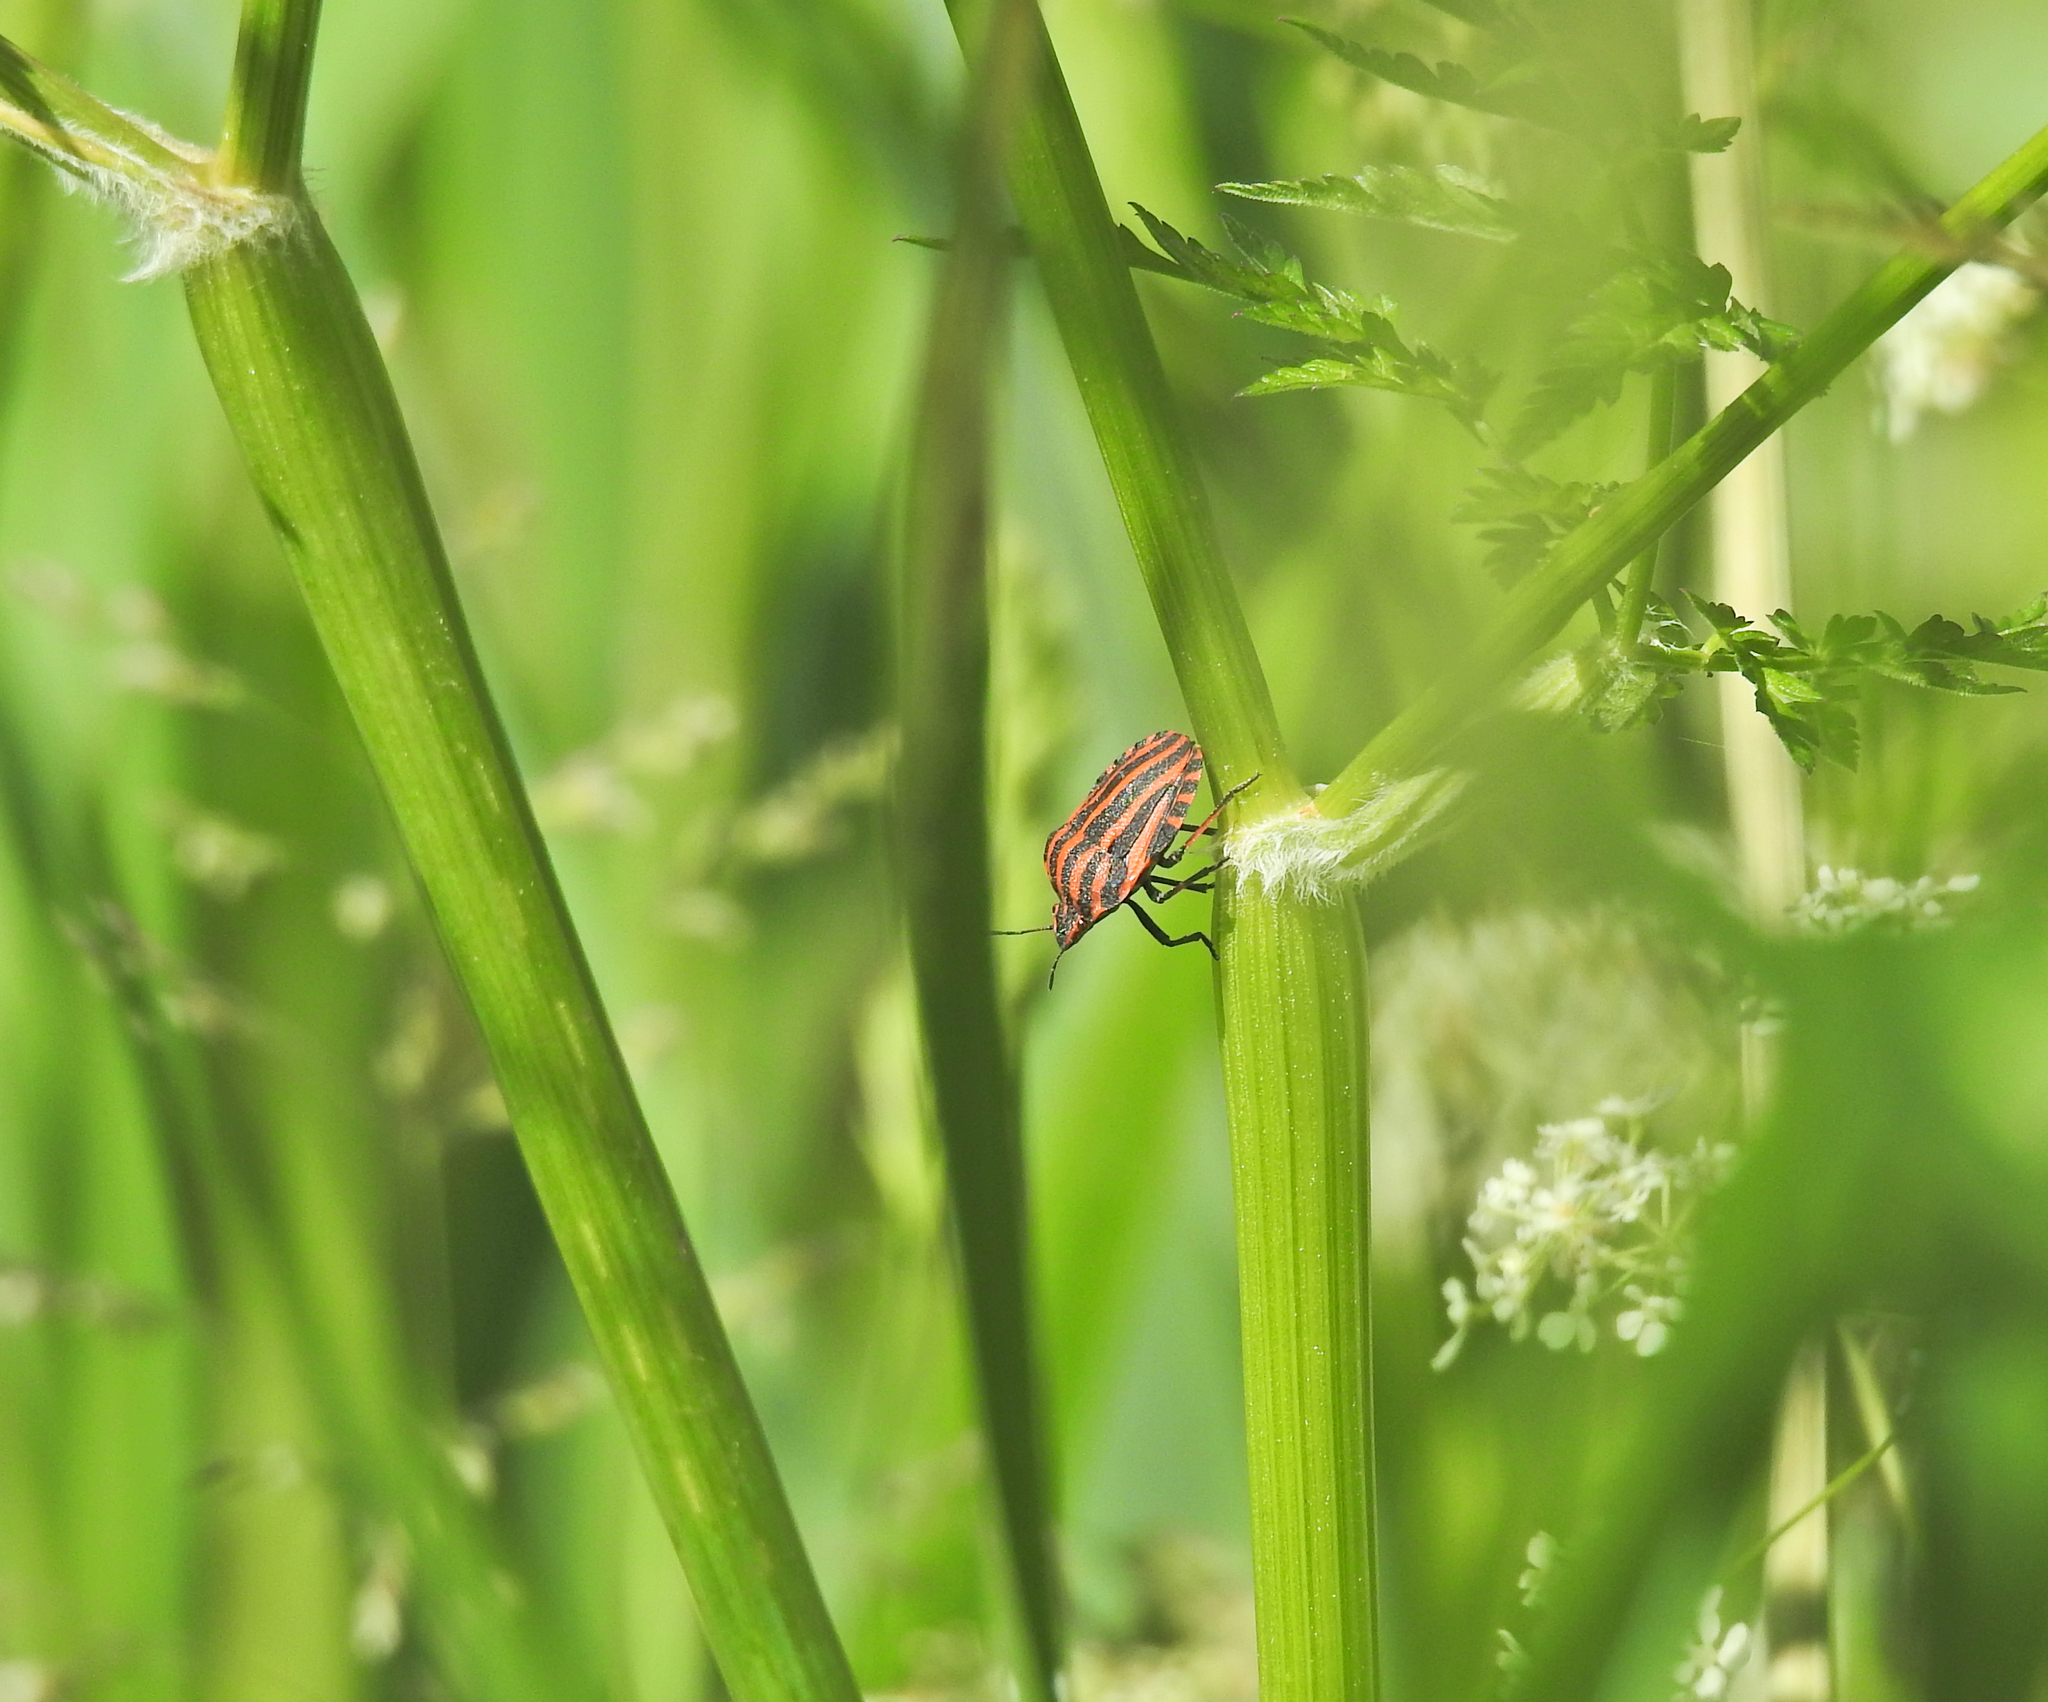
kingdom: Animalia
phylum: Arthropoda
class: Insecta
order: Hemiptera
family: Pentatomidae
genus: Graphosoma
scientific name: Graphosoma italicum
